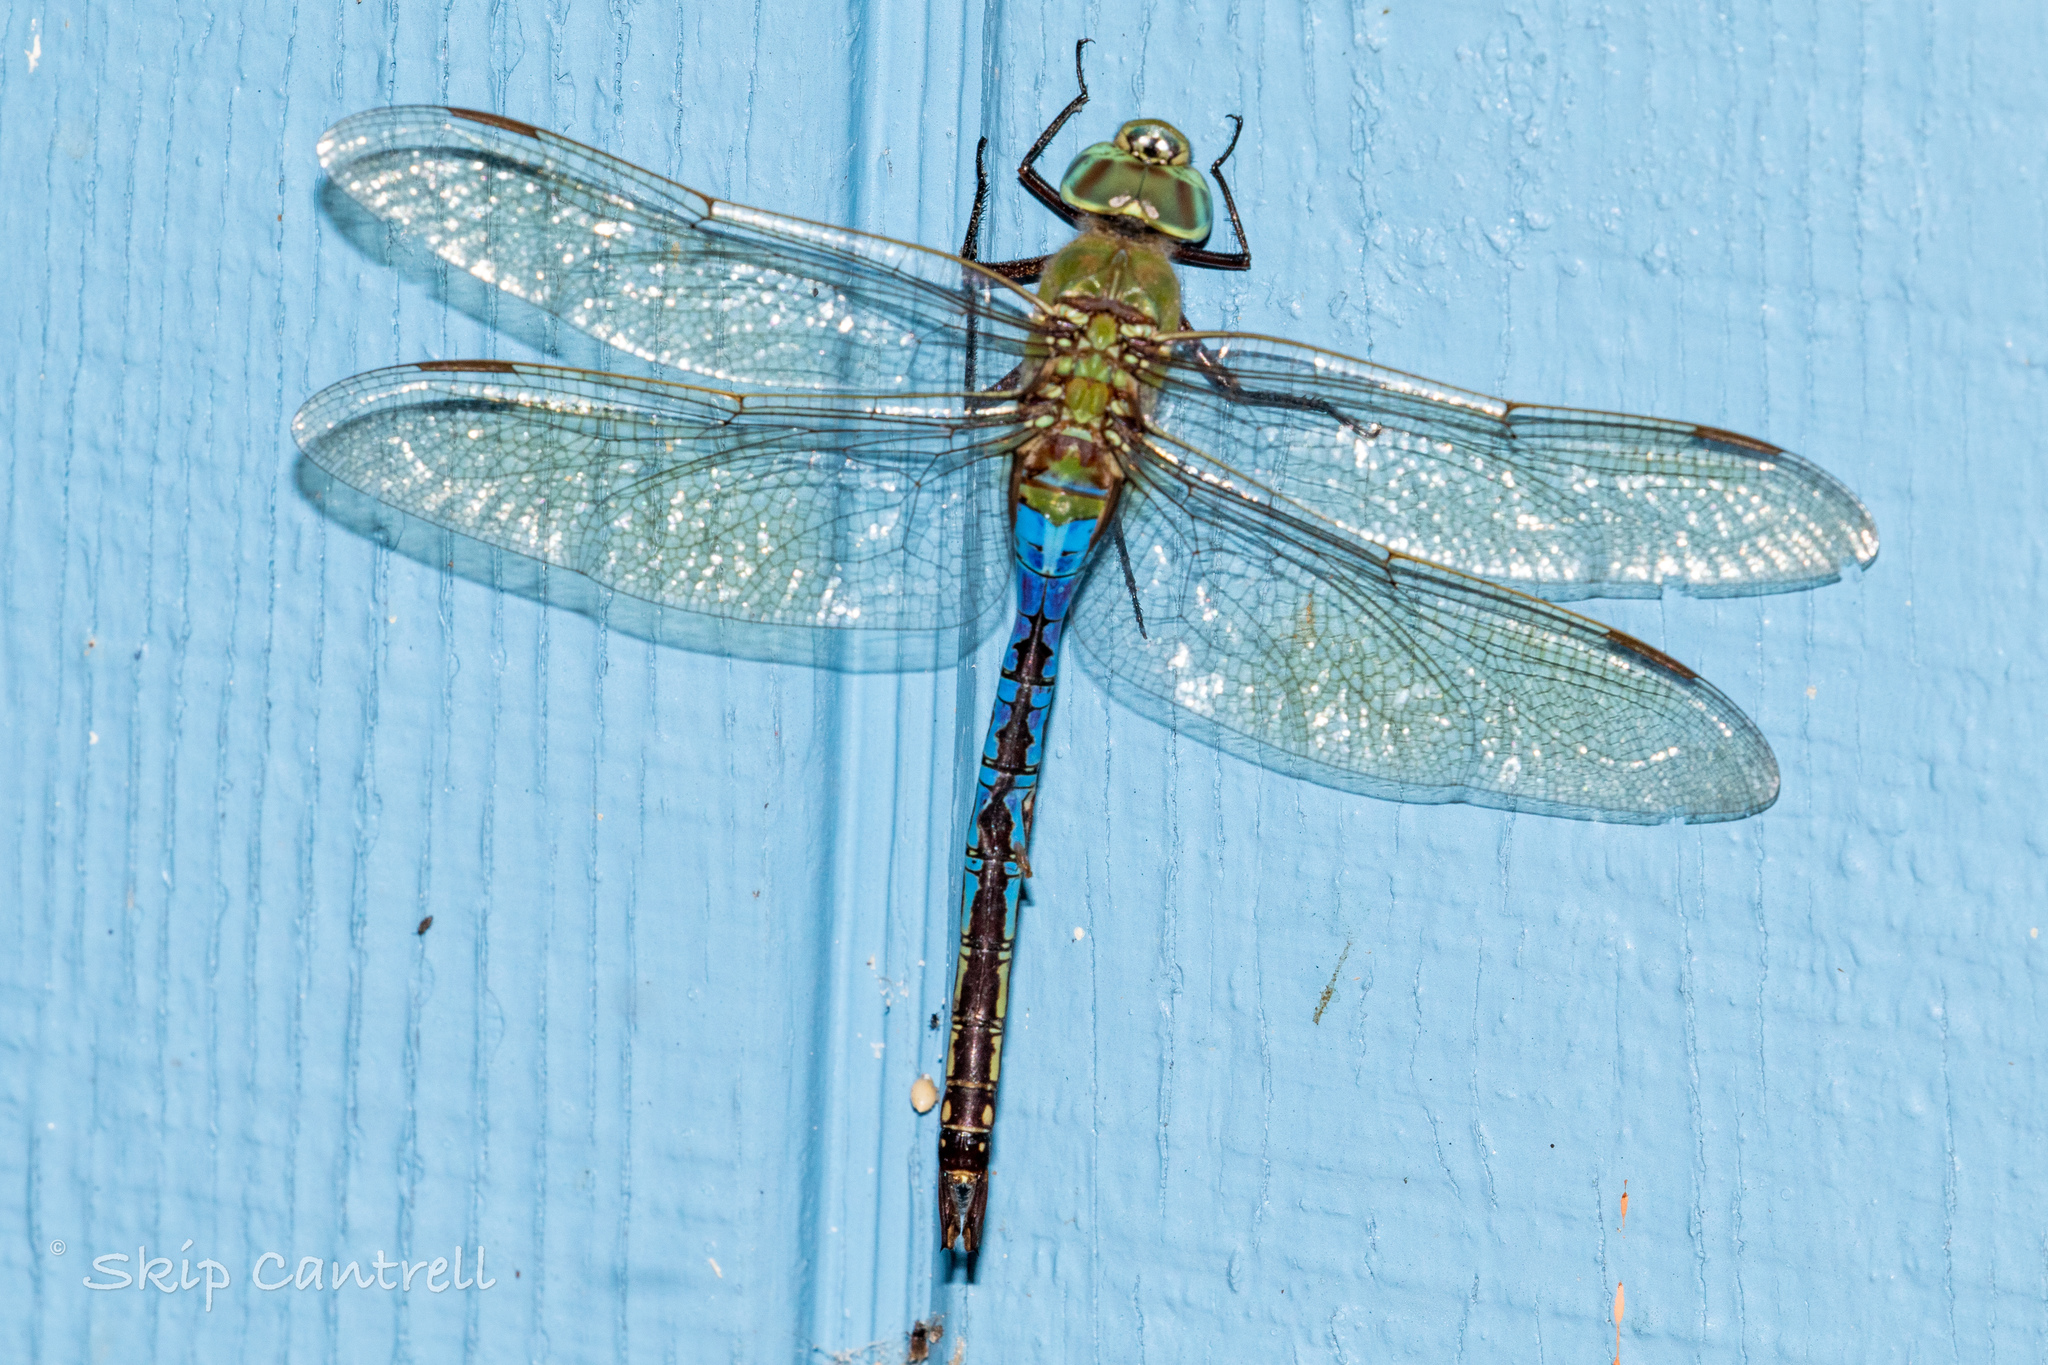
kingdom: Animalia
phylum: Arthropoda
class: Insecta
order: Odonata
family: Aeshnidae
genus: Anax
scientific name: Anax junius
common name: Common green darner
